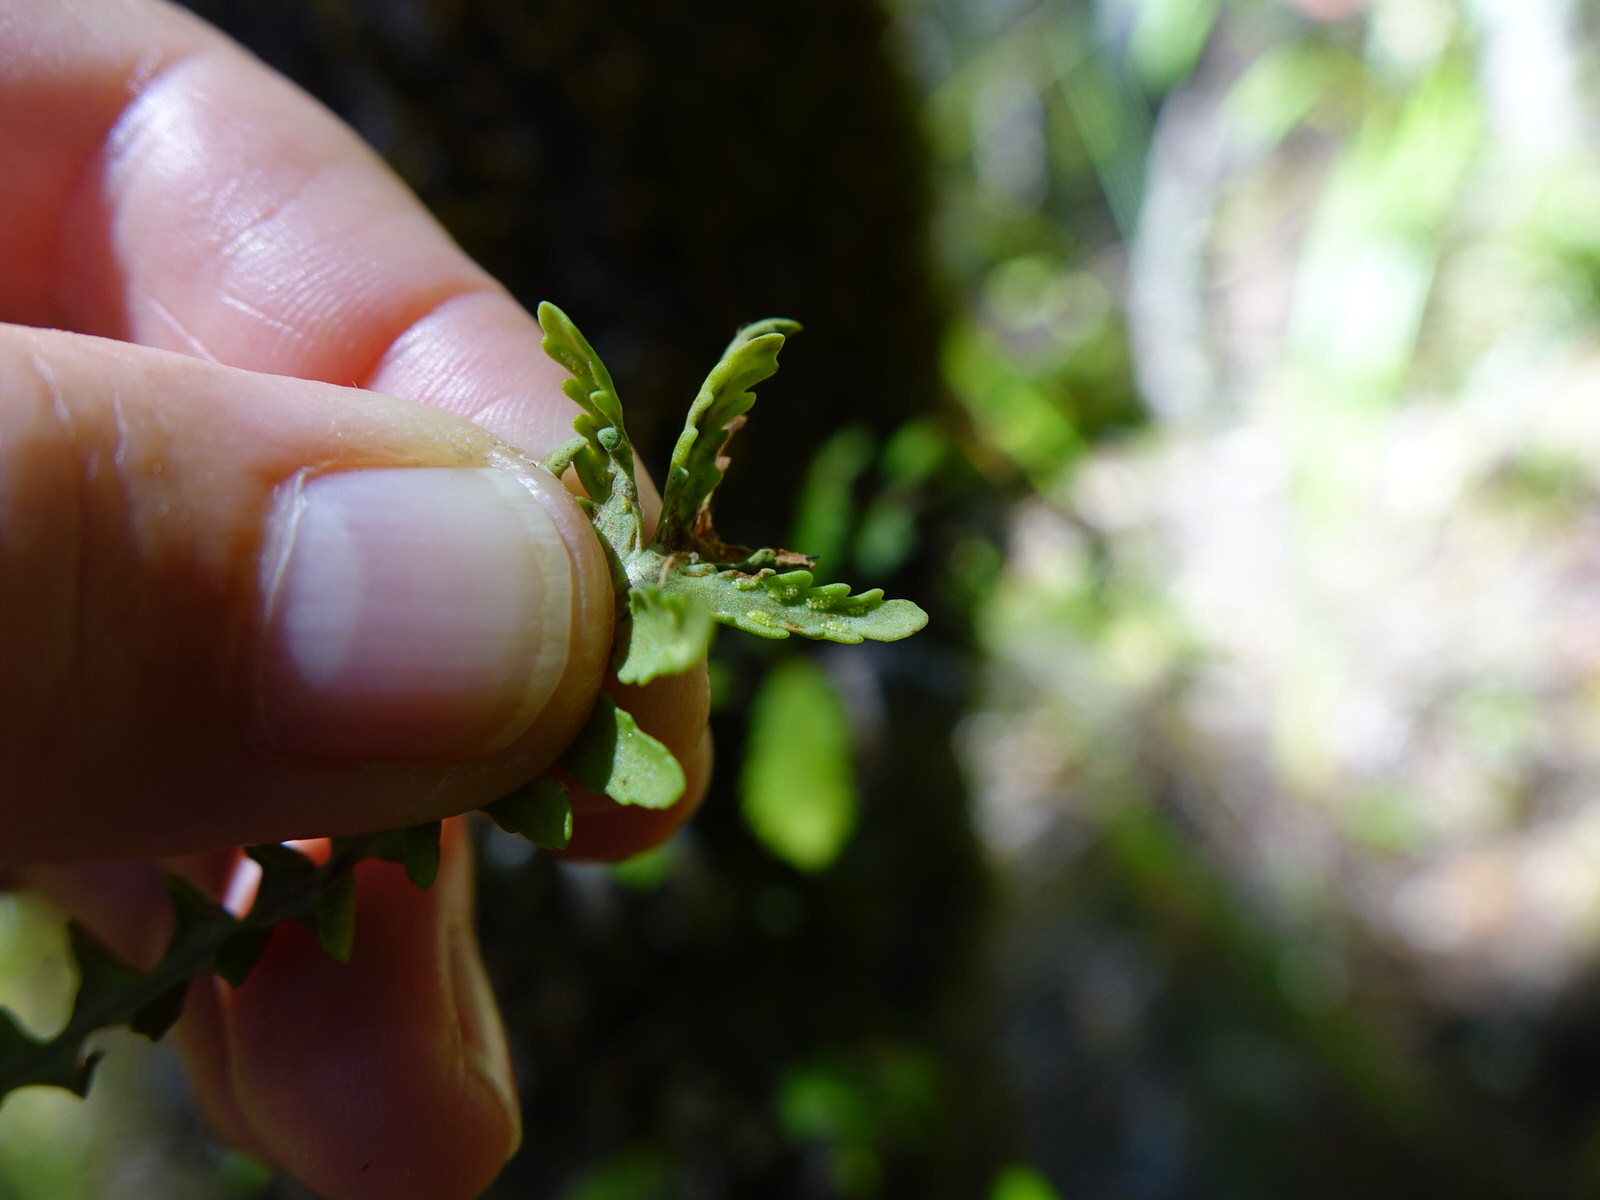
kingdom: Plantae
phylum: Tracheophyta
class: Polypodiopsida
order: Polypodiales
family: Polypodiaceae
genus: Notogrammitis
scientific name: Notogrammitis heterophylla
